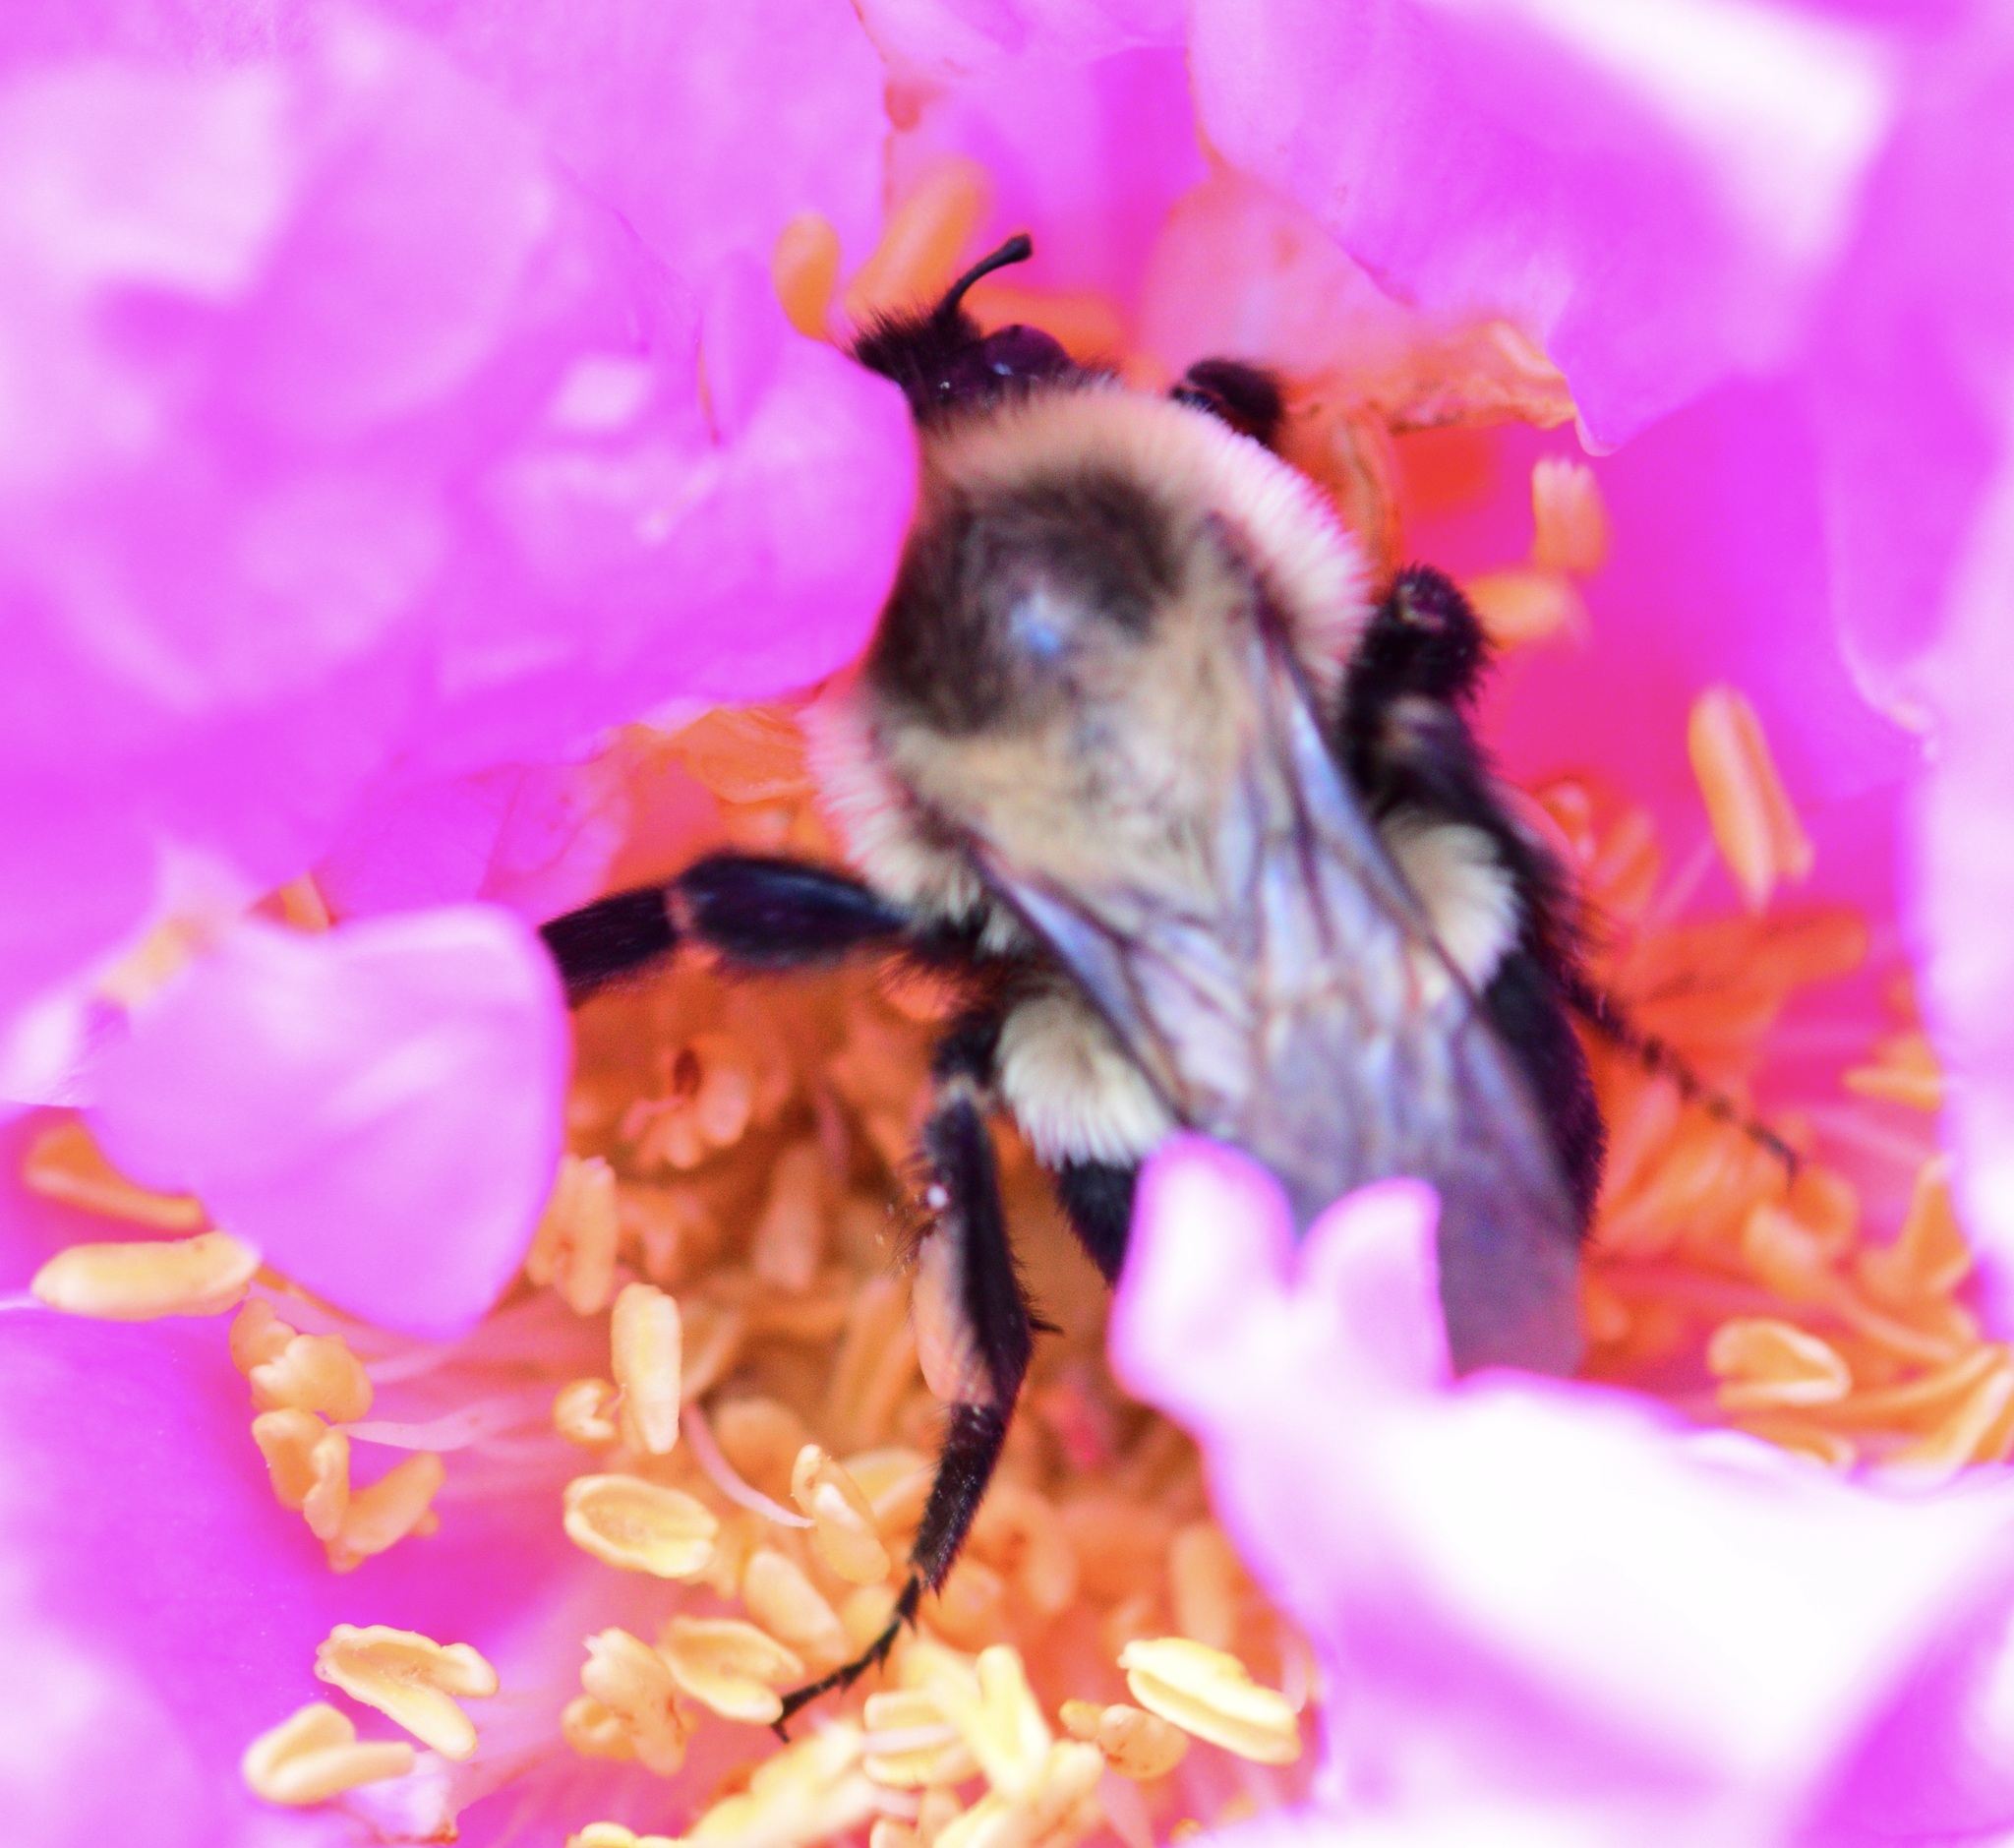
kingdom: Animalia
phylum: Arthropoda
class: Insecta
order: Hymenoptera
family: Apidae
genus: Bombus
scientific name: Bombus impatiens
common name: Common eastern bumble bee
